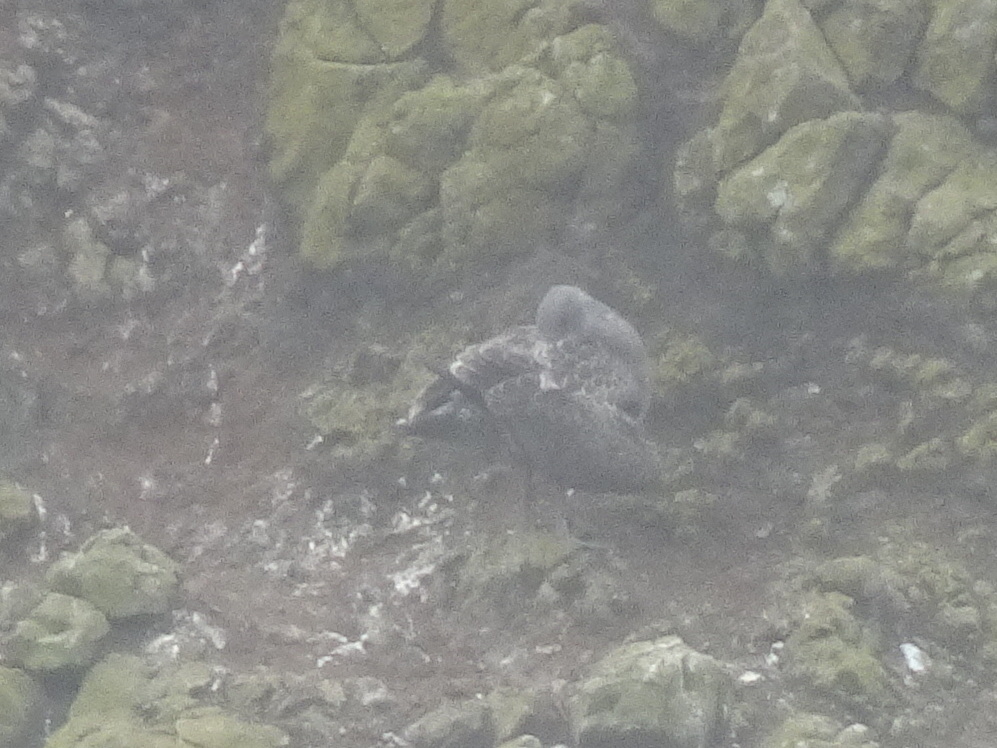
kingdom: Animalia
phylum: Chordata
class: Aves
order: Charadriiformes
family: Laridae
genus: Larus
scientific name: Larus
